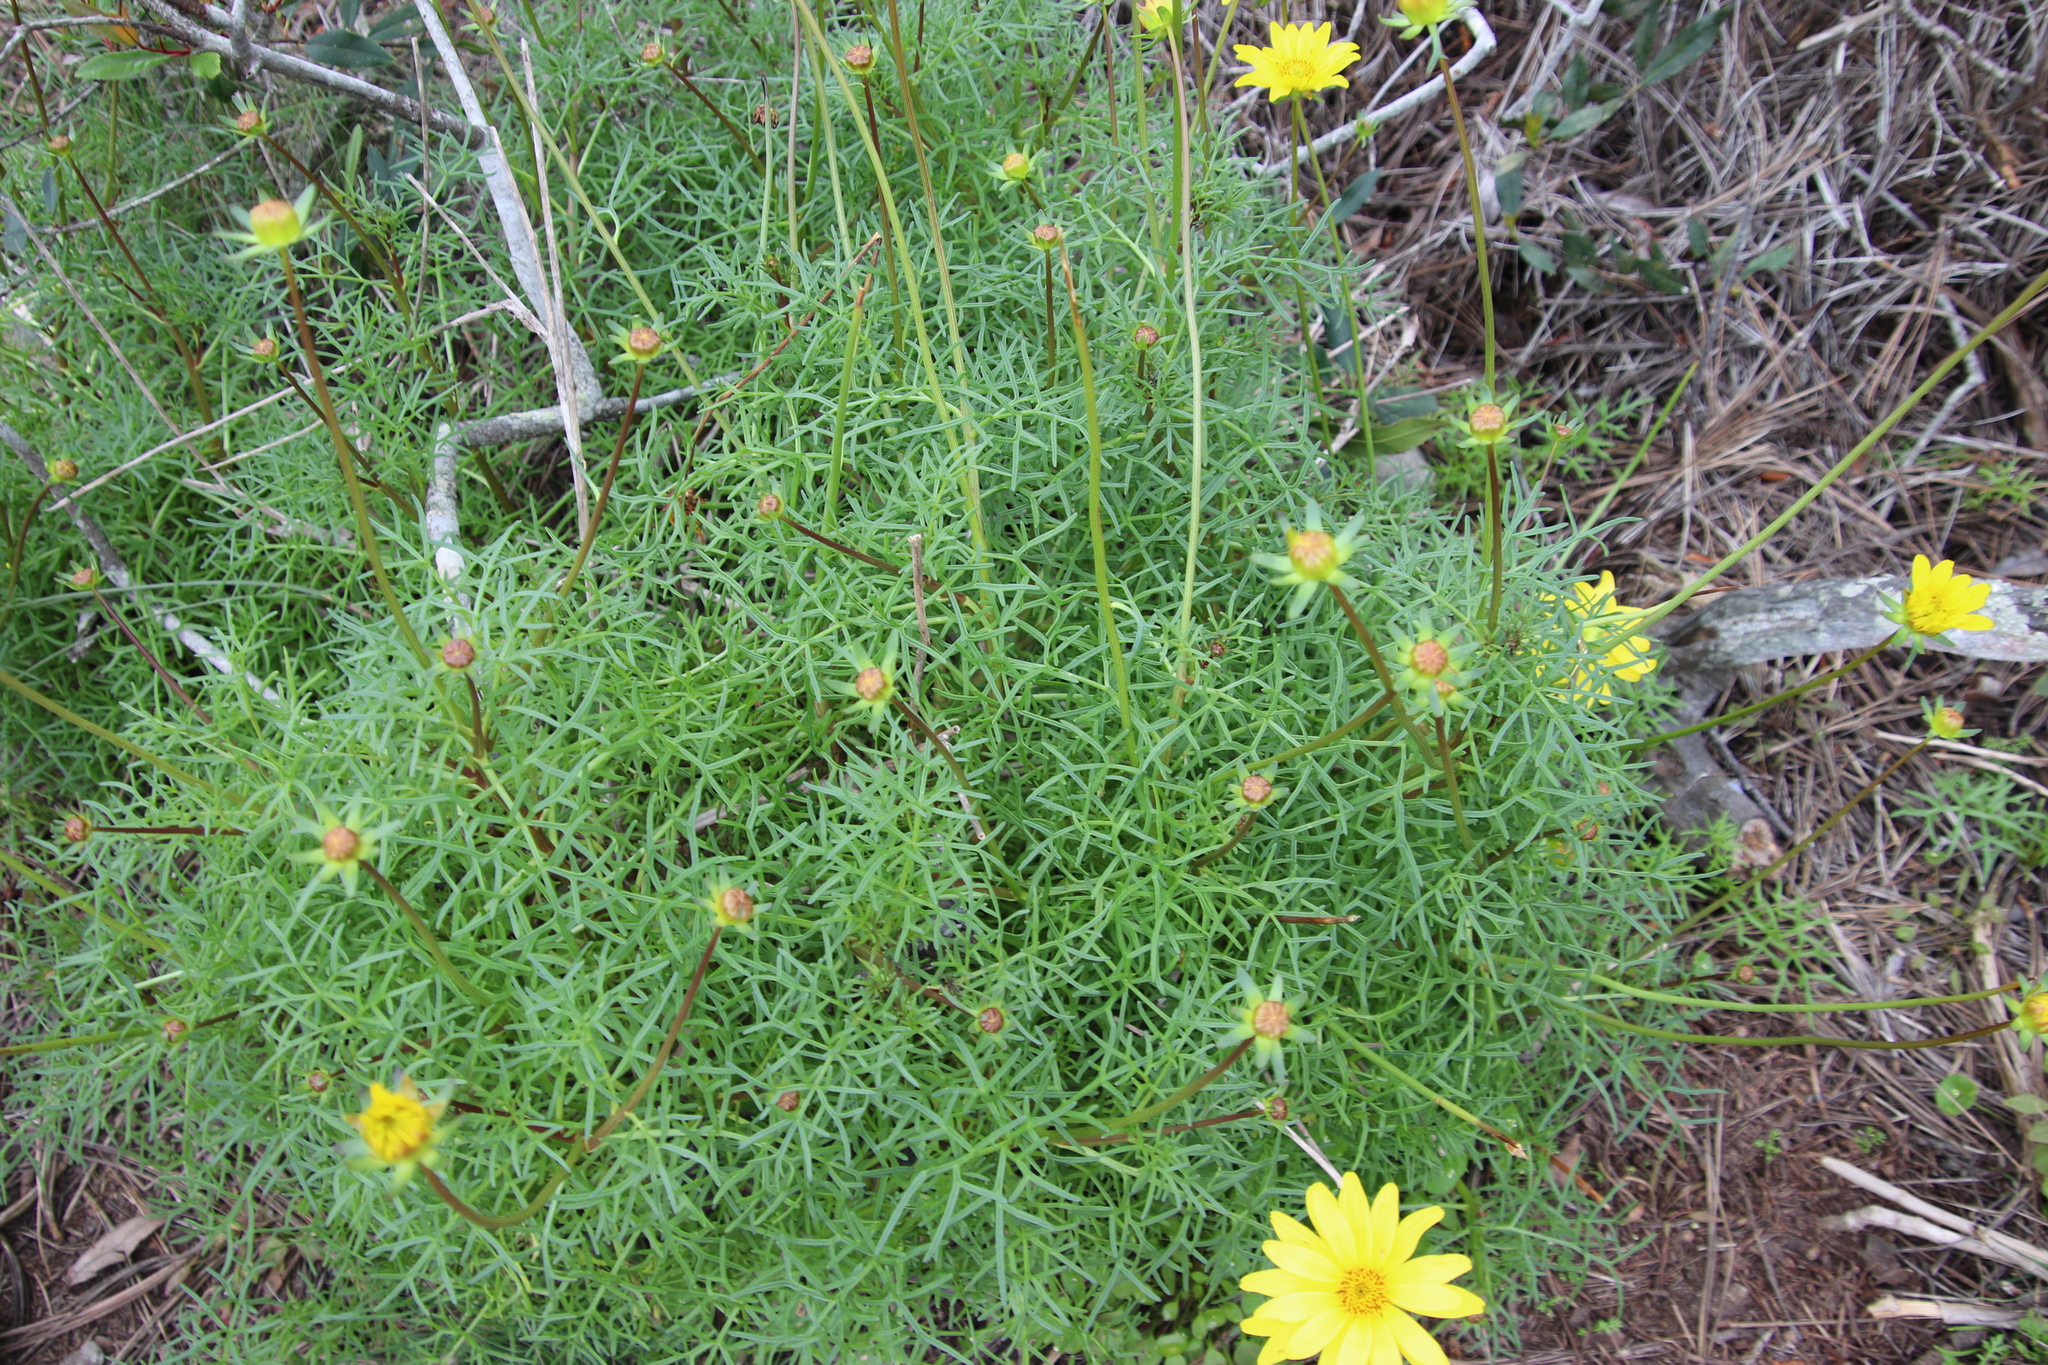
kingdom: Plantae
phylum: Tracheophyta
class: Magnoliopsida
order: Asterales
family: Asteraceae
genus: Coreopsis
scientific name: Coreopsis maritima
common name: Sea-dahlia
